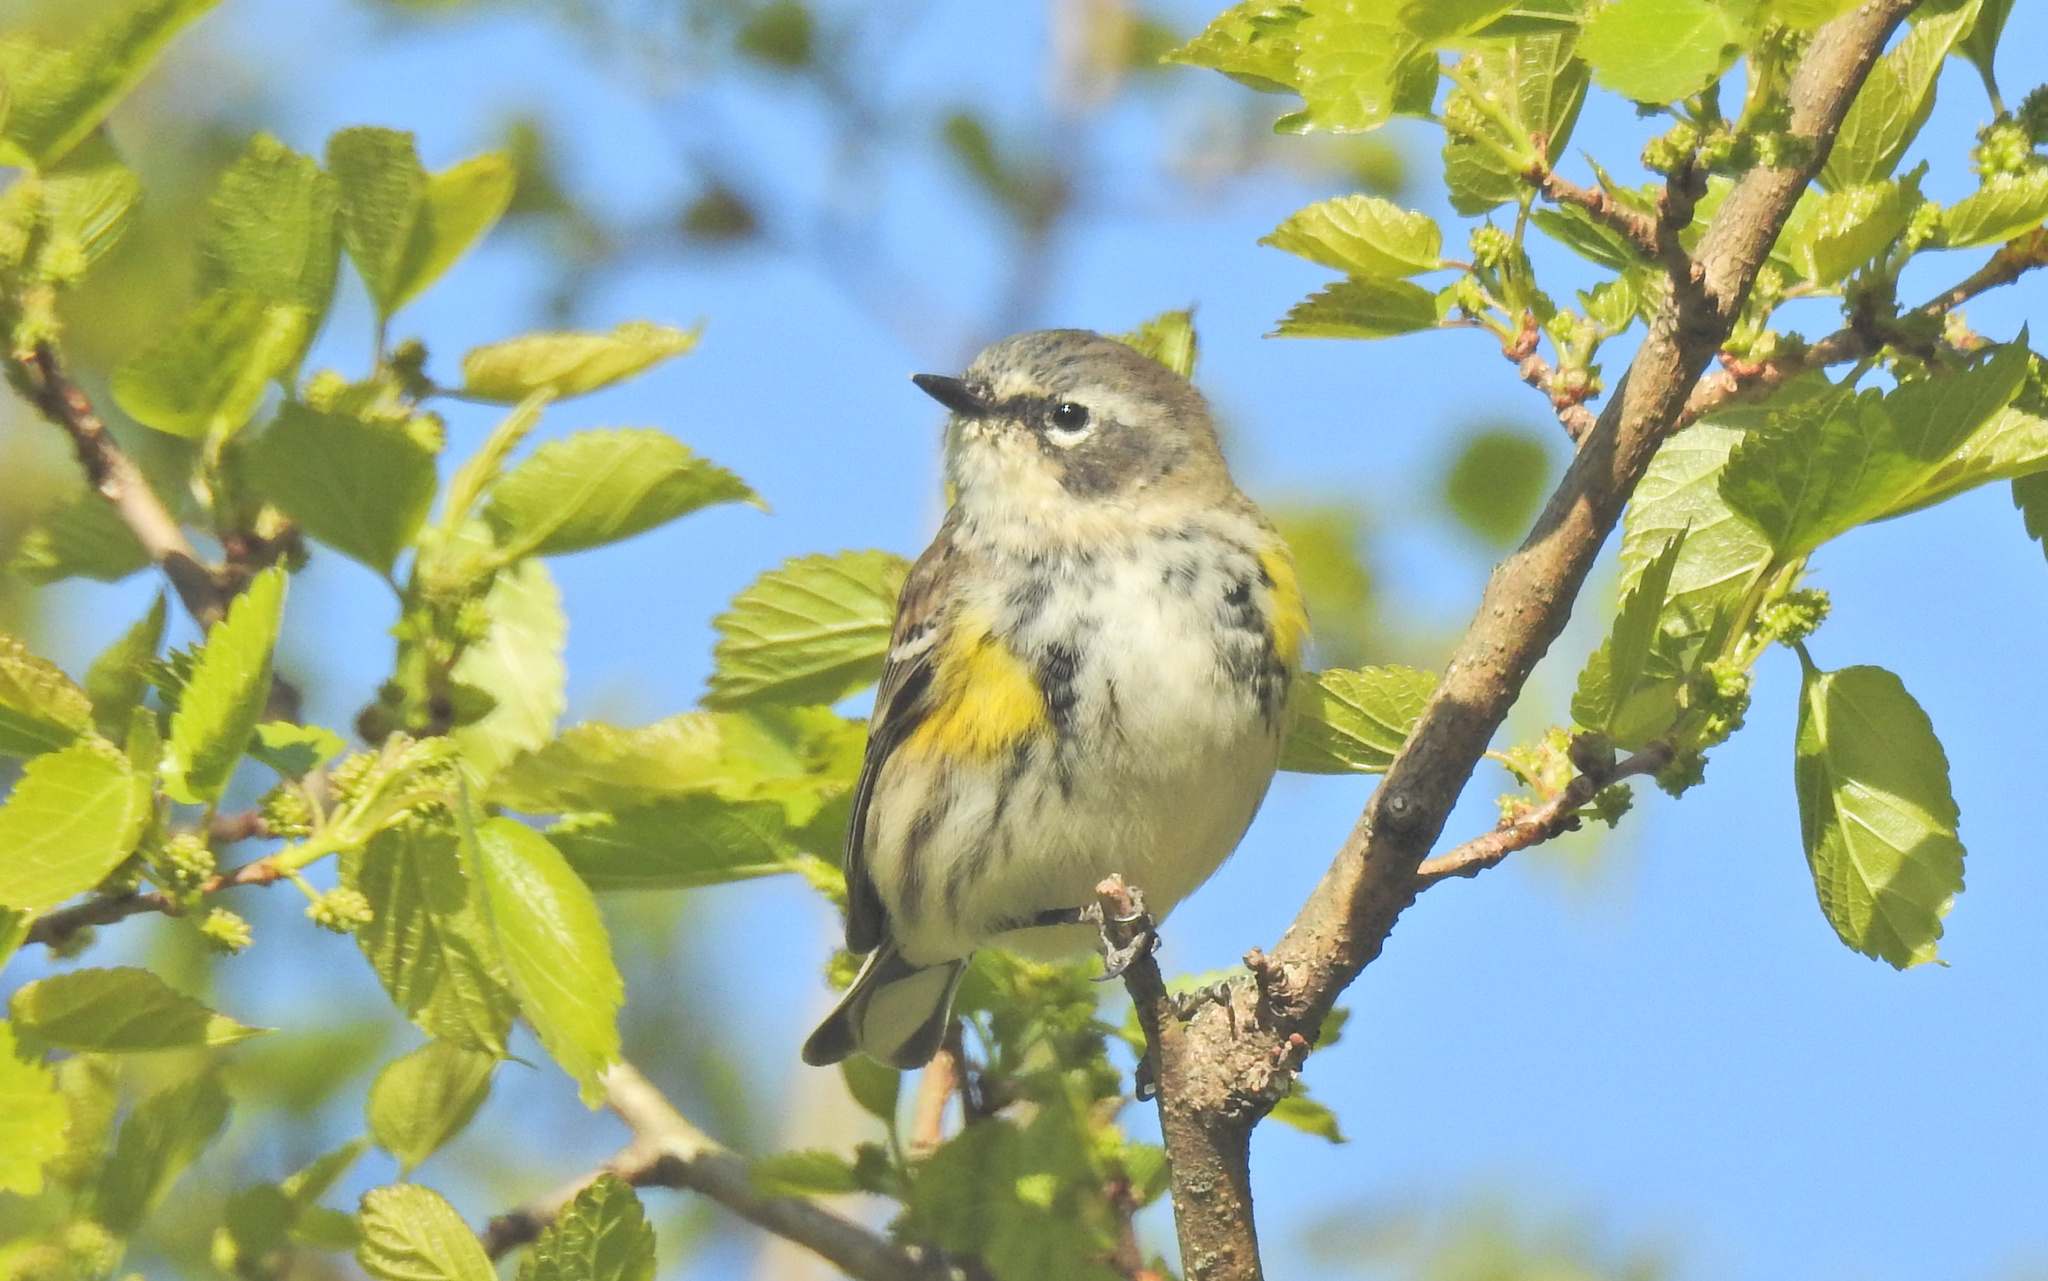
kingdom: Animalia
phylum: Chordata
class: Aves
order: Passeriformes
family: Parulidae
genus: Setophaga
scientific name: Setophaga coronata
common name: Myrtle warbler
